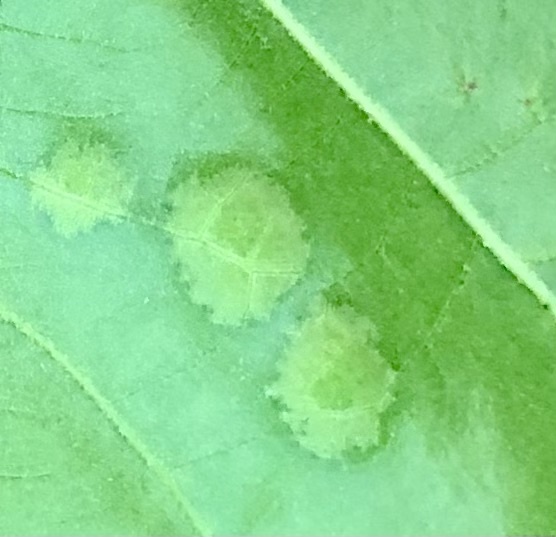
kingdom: Fungi
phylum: Ascomycota
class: Taphrinomycetes
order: Taphrinales
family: Taphrinaceae
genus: Taphrina
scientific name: Taphrina caerulescens
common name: Oak leaf blister
